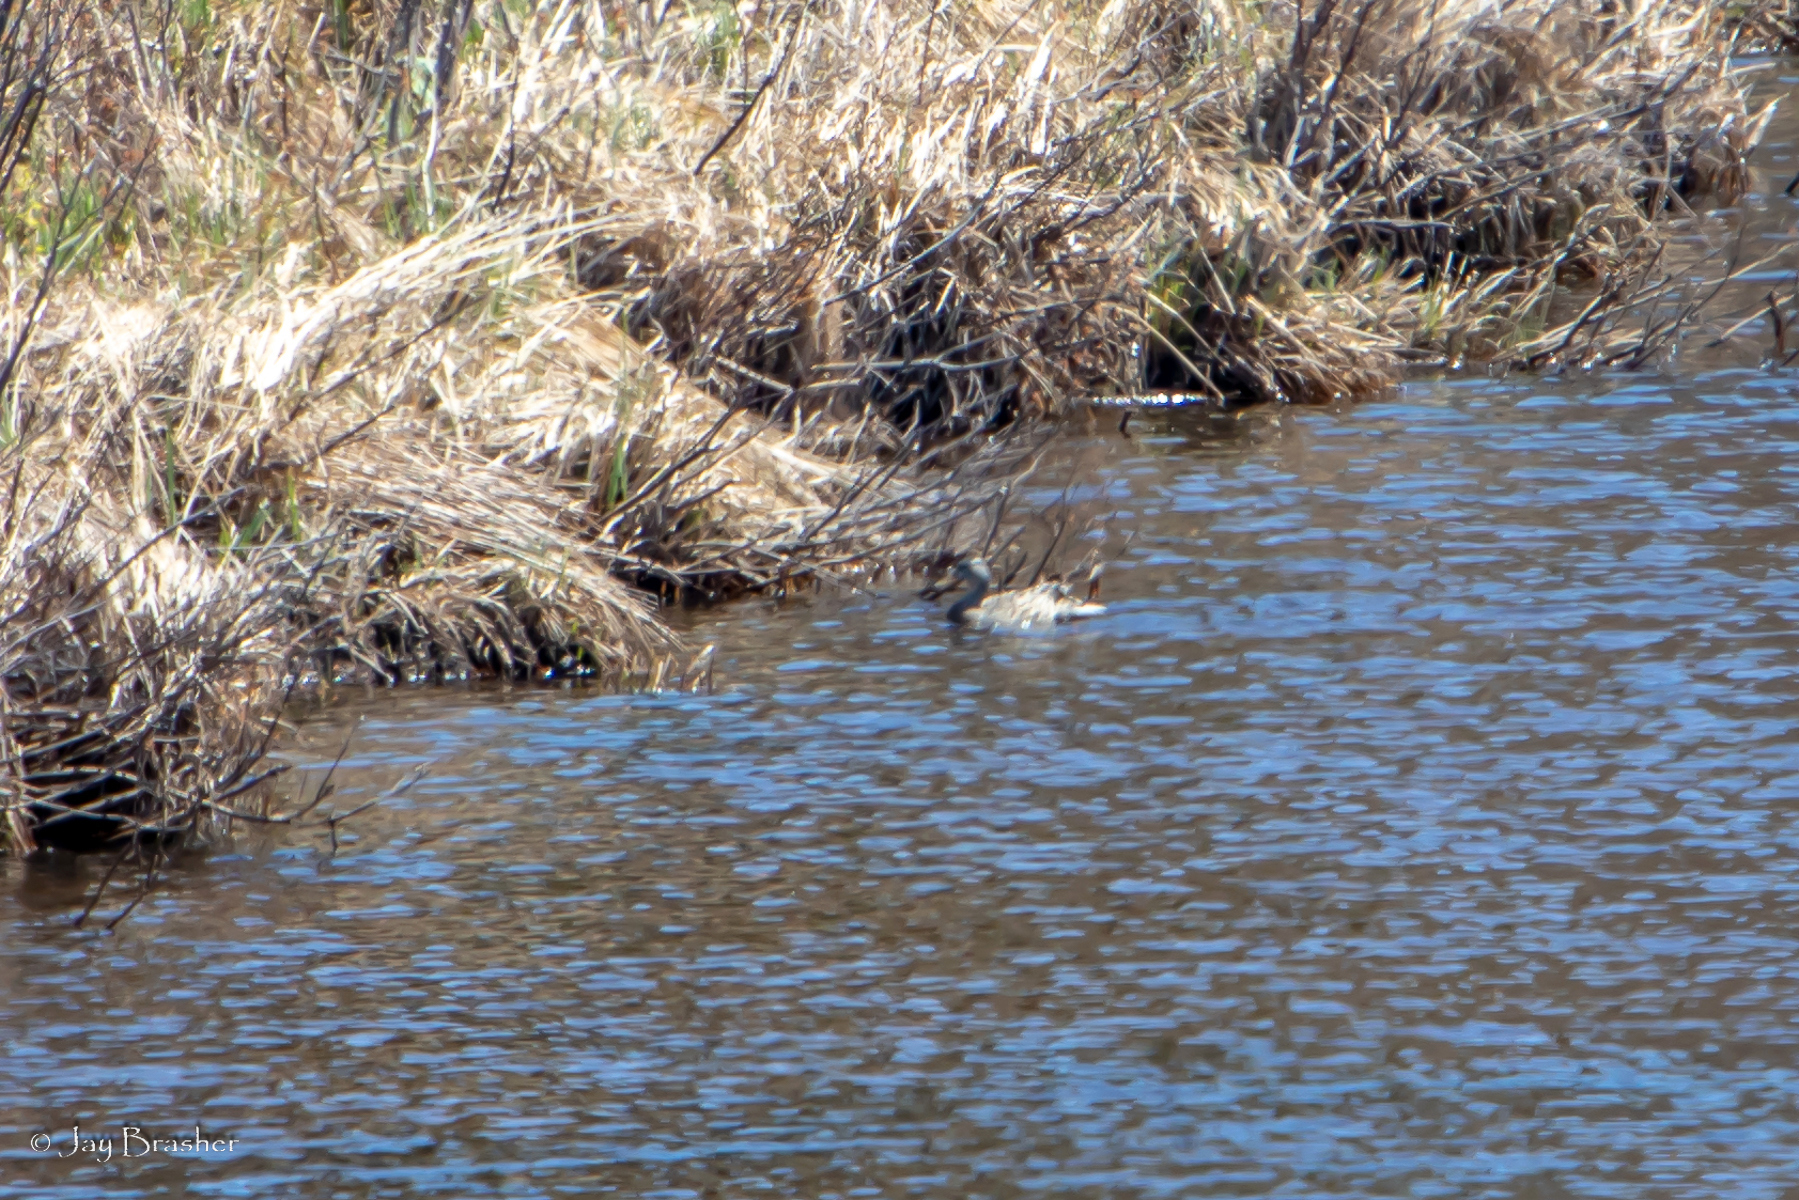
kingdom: Animalia
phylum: Chordata
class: Aves
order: Anseriformes
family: Anatidae
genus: Anas
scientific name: Anas platyrhynchos
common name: Mallard
